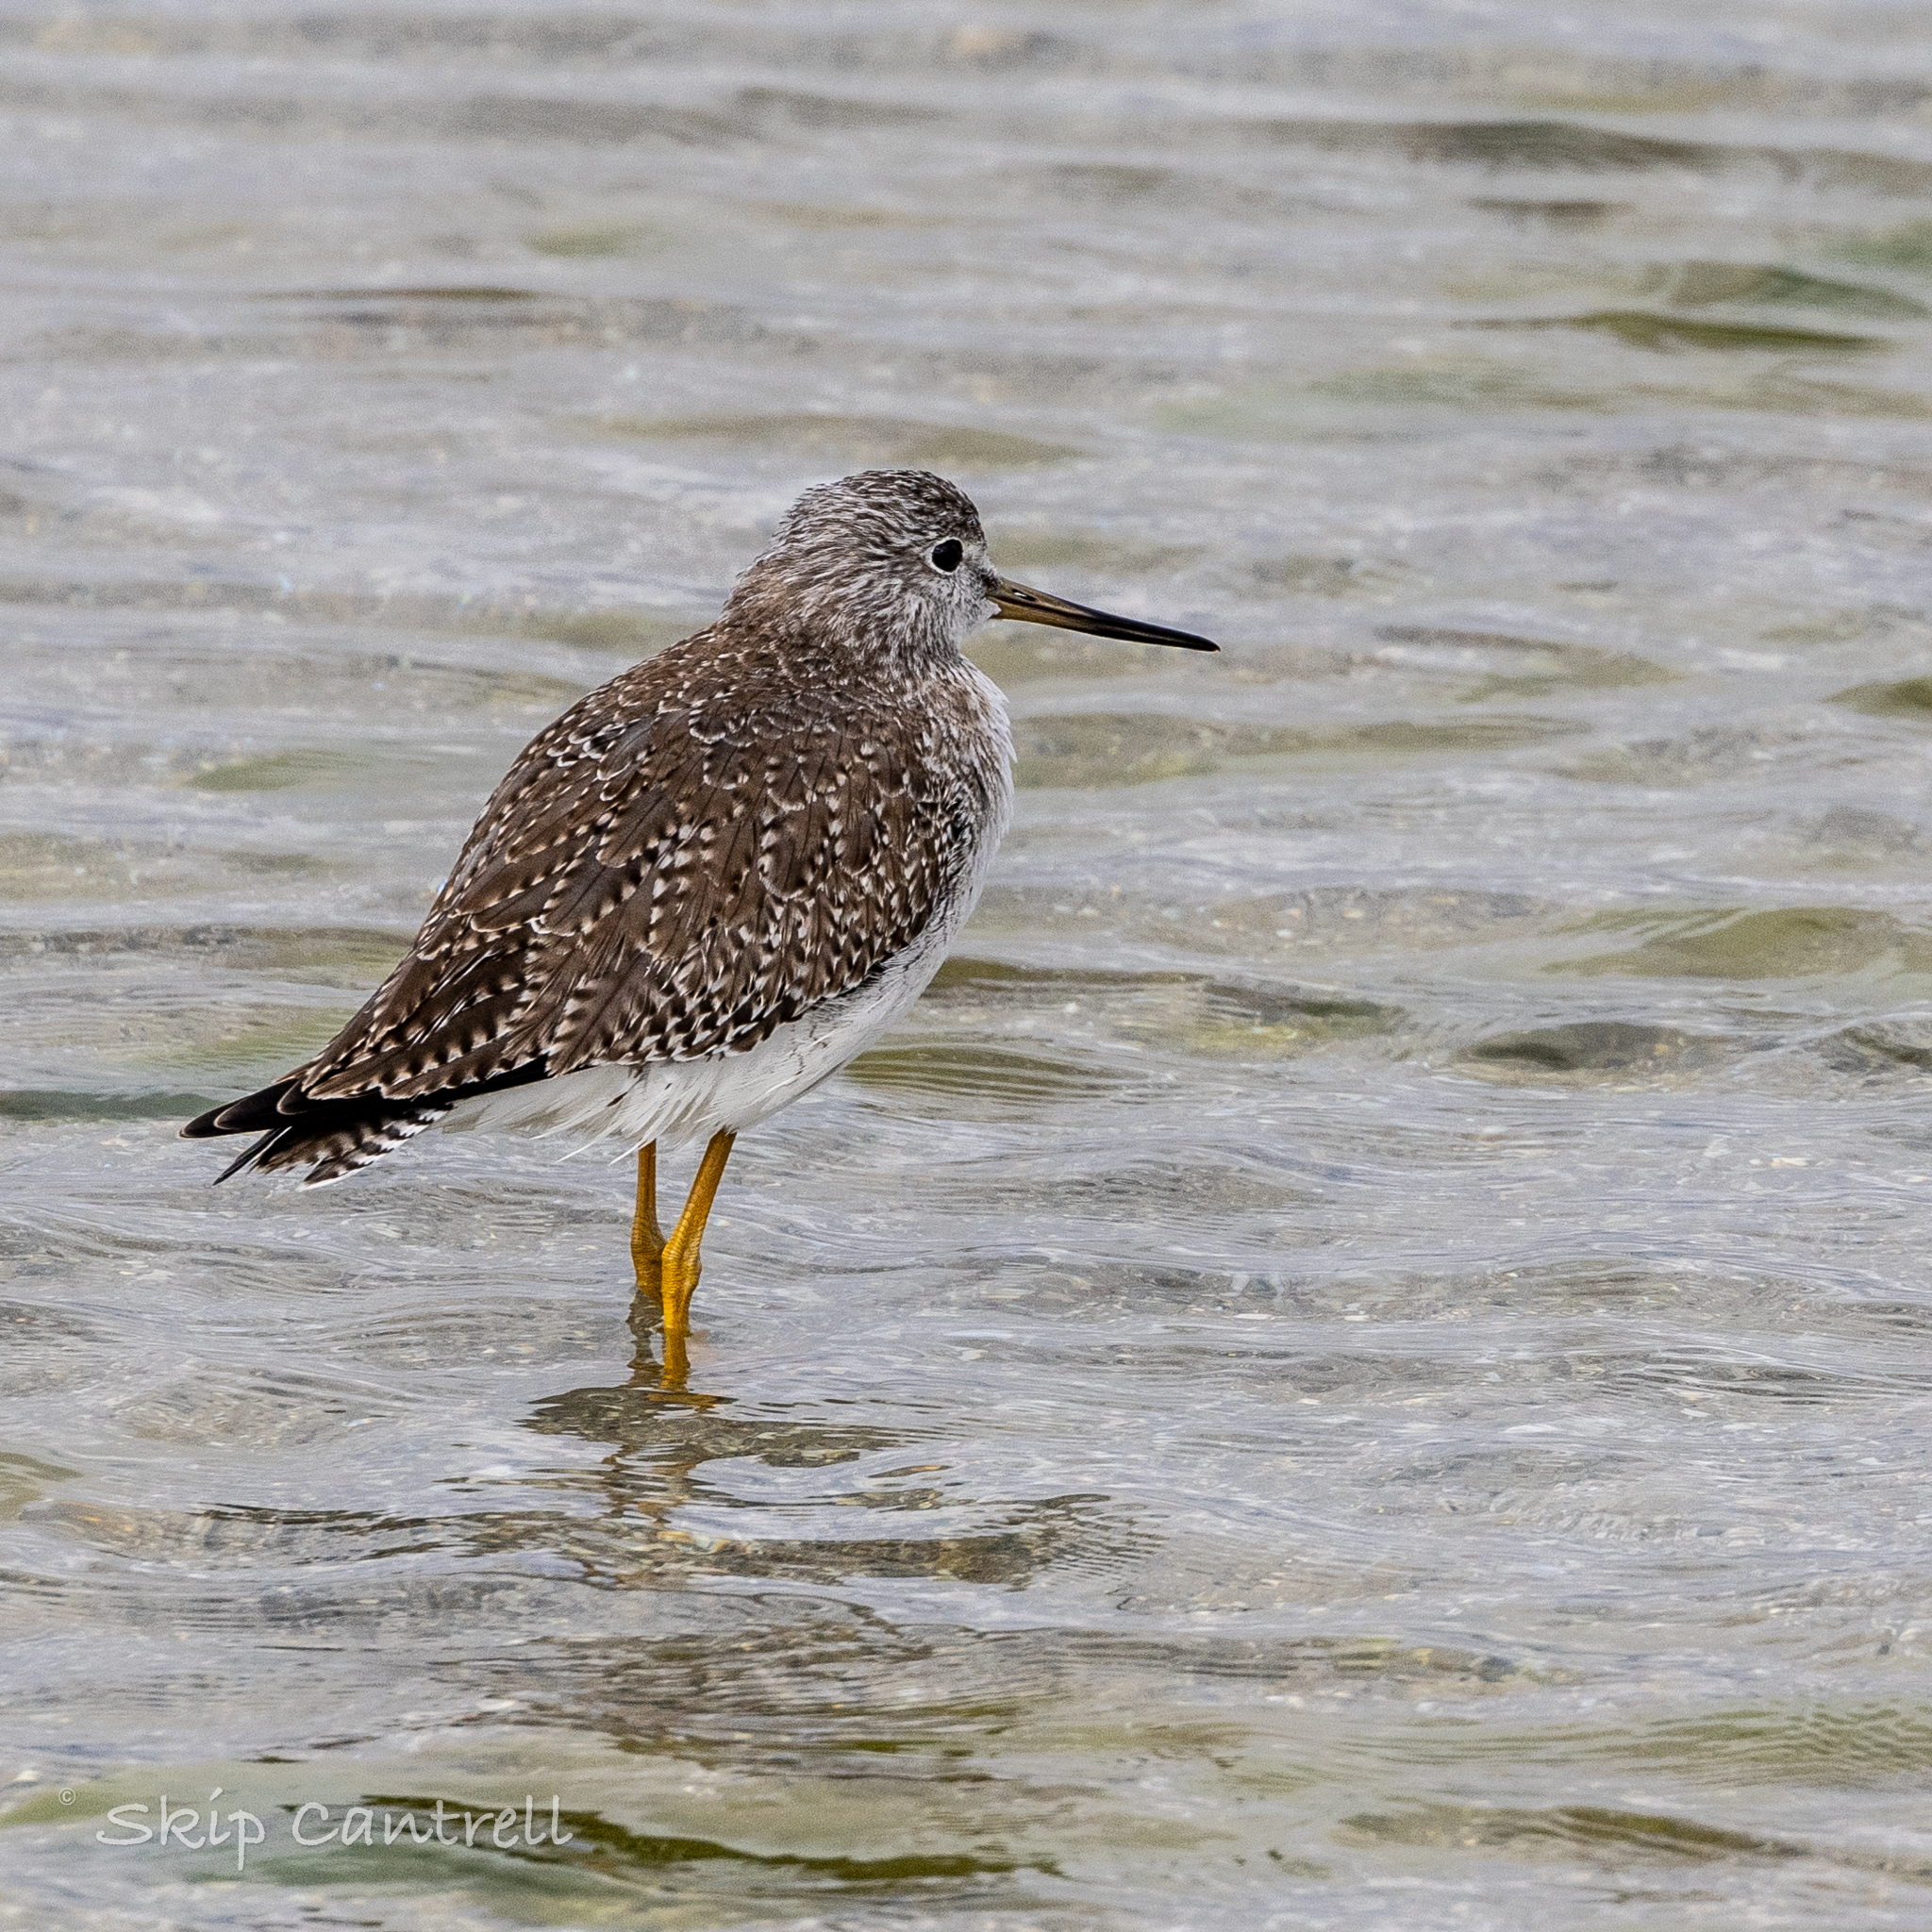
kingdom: Animalia
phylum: Chordata
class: Aves
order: Charadriiformes
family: Scolopacidae
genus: Tringa
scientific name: Tringa melanoleuca
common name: Greater yellowlegs
